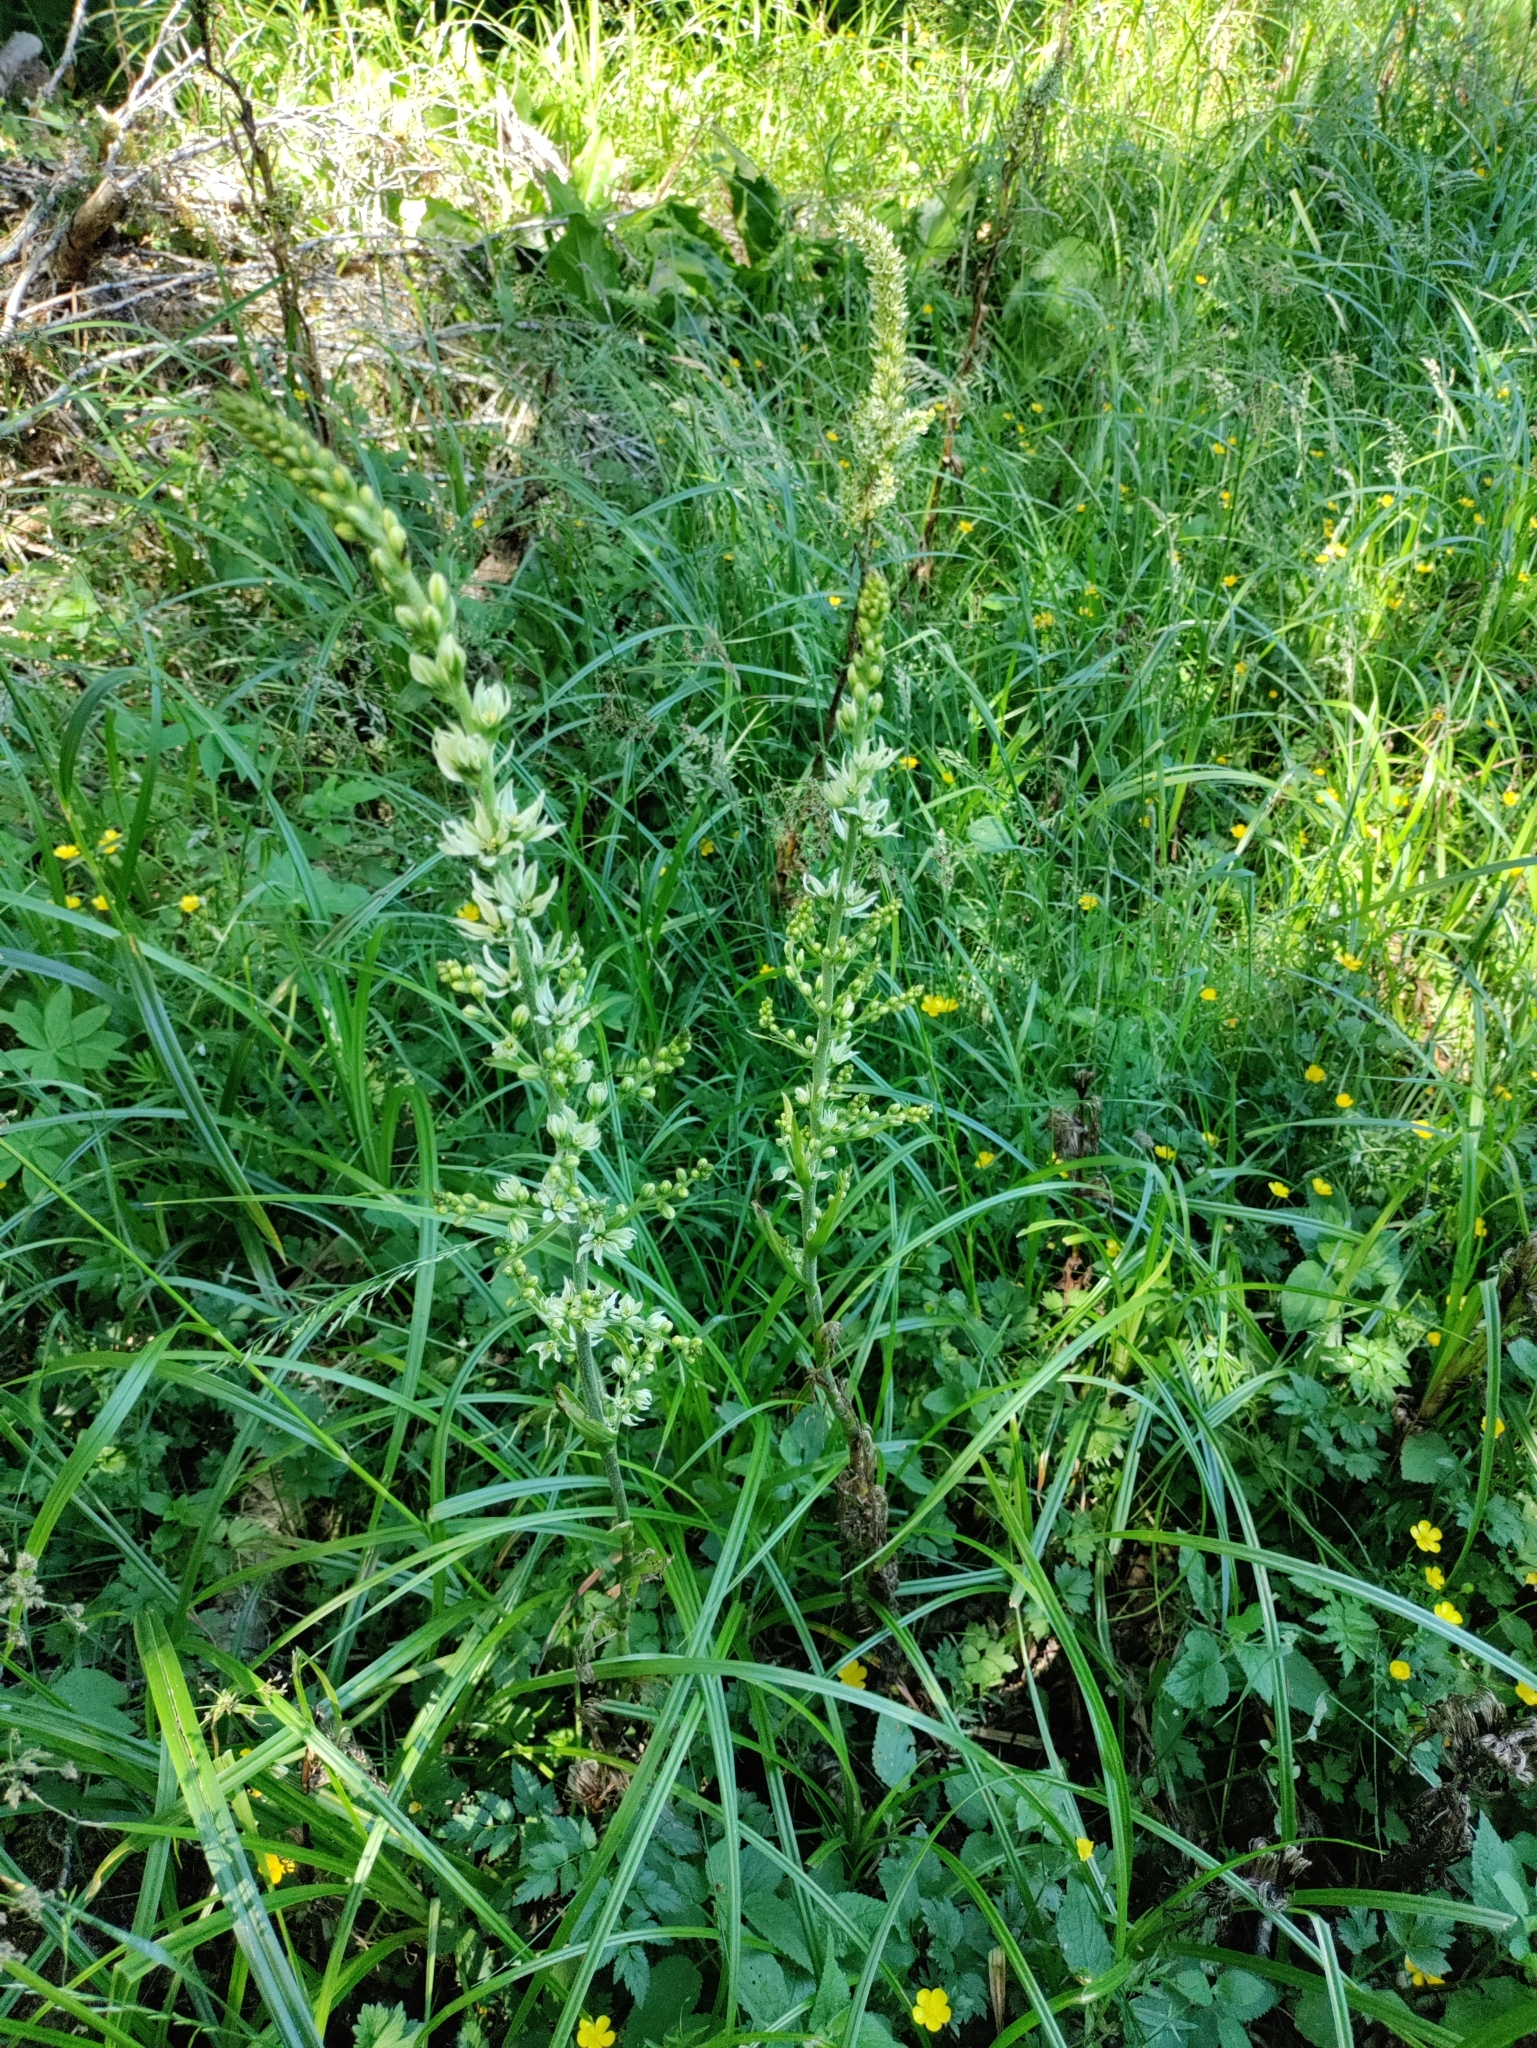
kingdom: Plantae
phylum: Tracheophyta
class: Liliopsida
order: Liliales
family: Melanthiaceae
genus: Veratrum
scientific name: Veratrum californicum
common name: California veratrum
